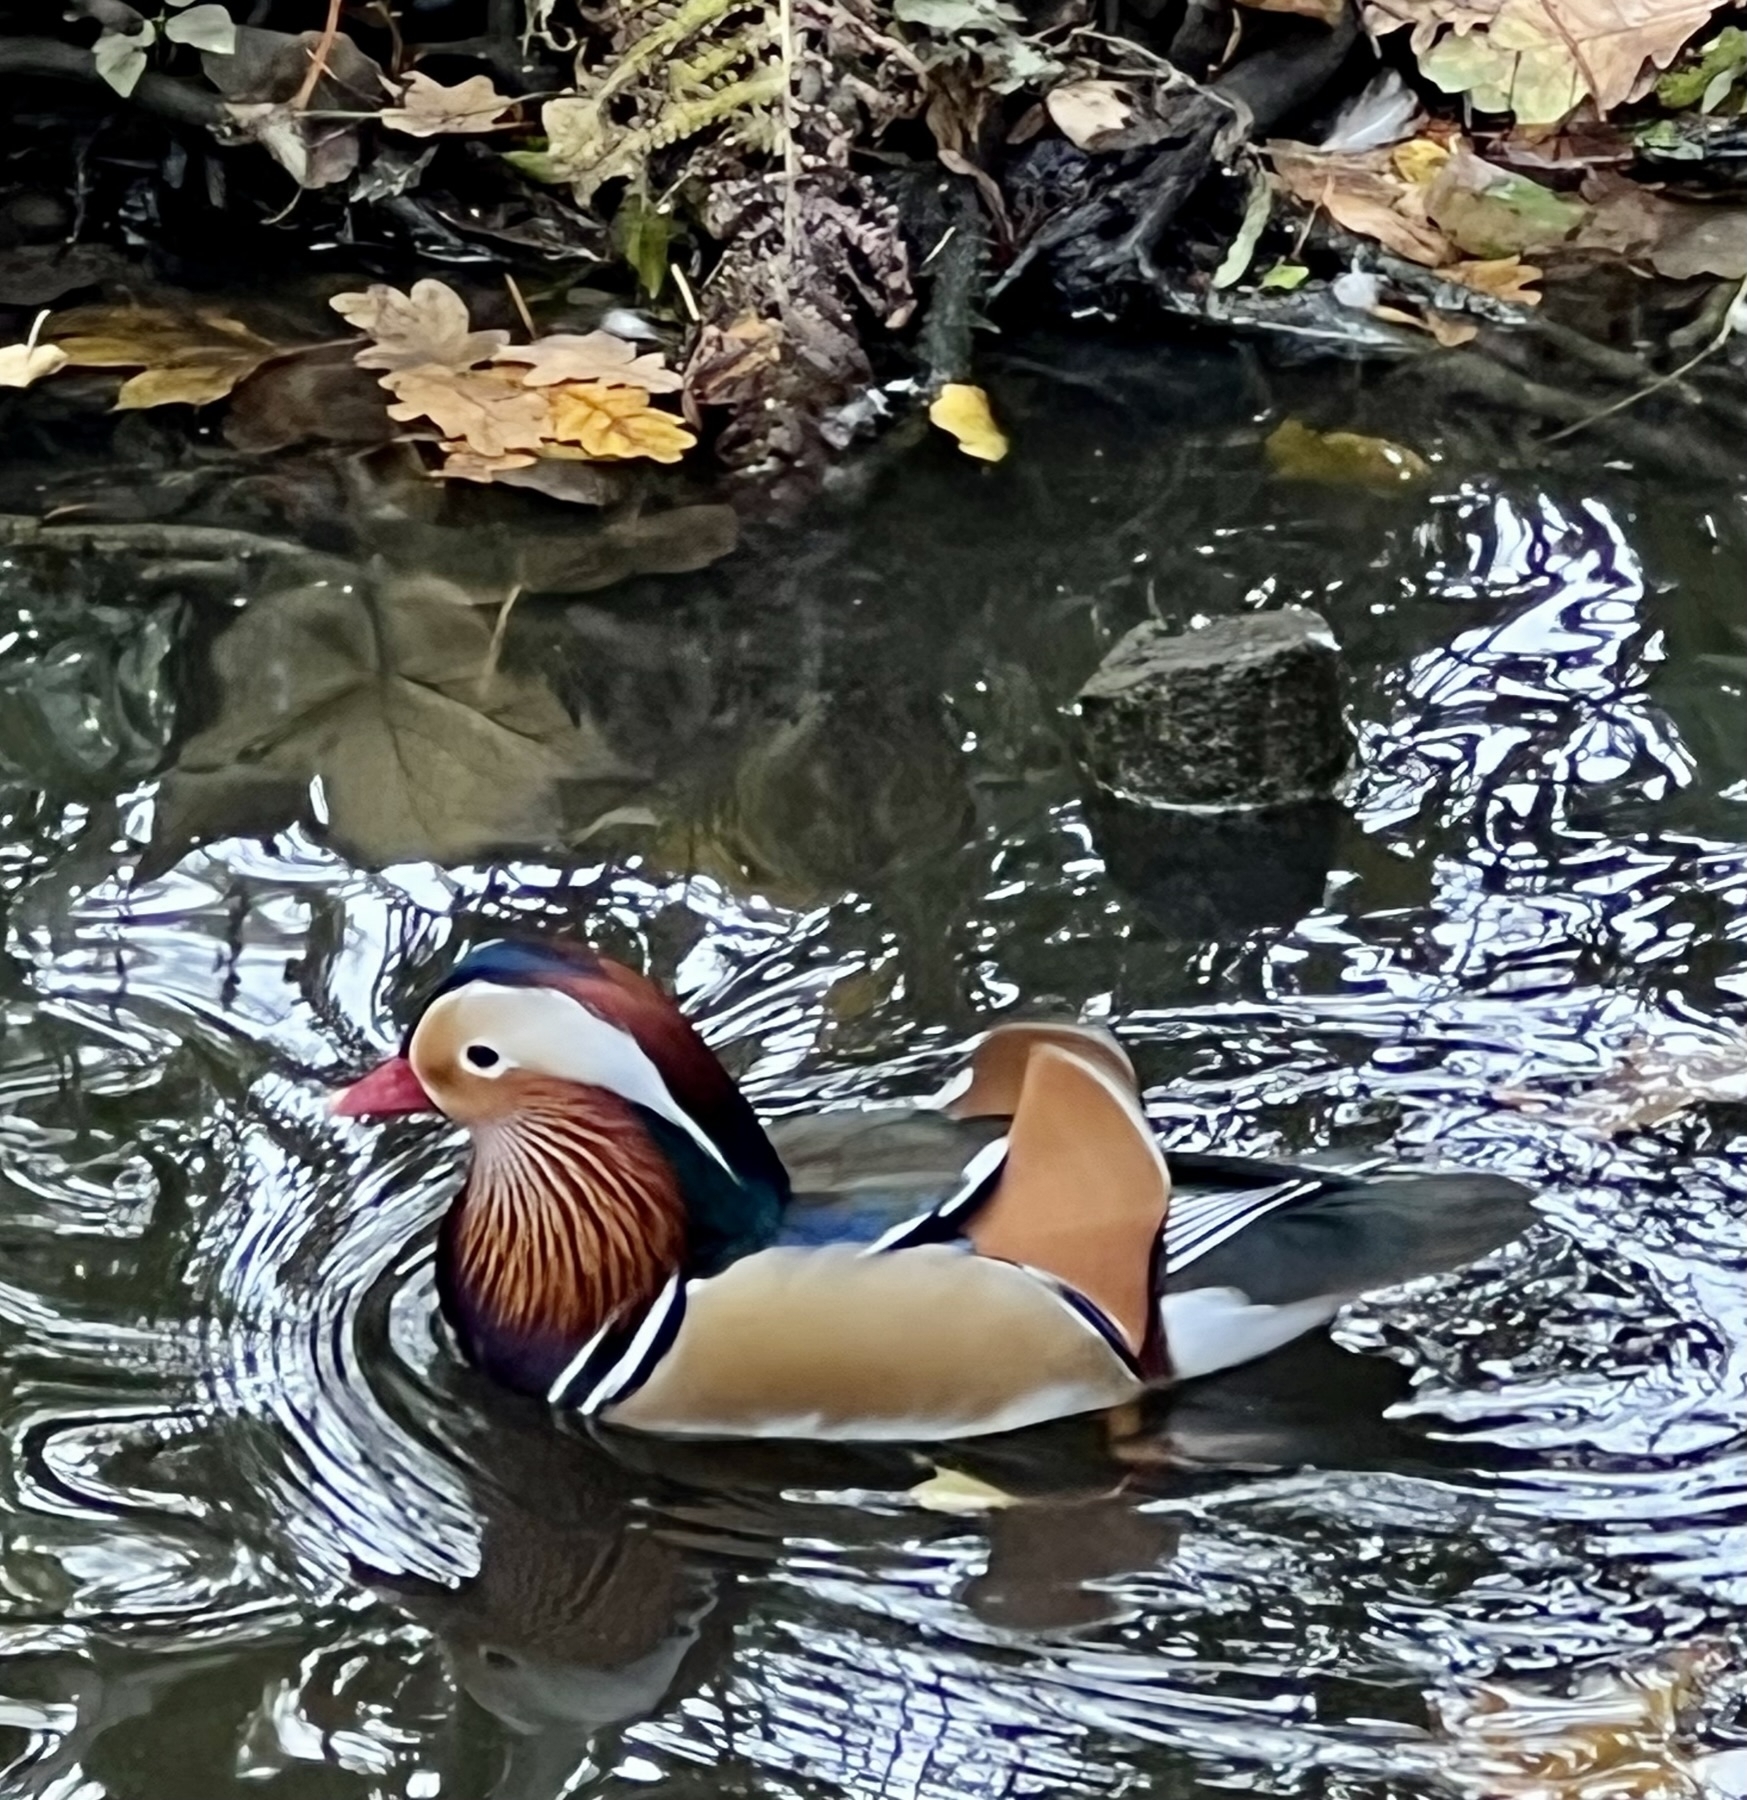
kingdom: Animalia
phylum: Chordata
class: Aves
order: Anseriformes
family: Anatidae
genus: Aix
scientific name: Aix galericulata
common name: Mandarin duck
